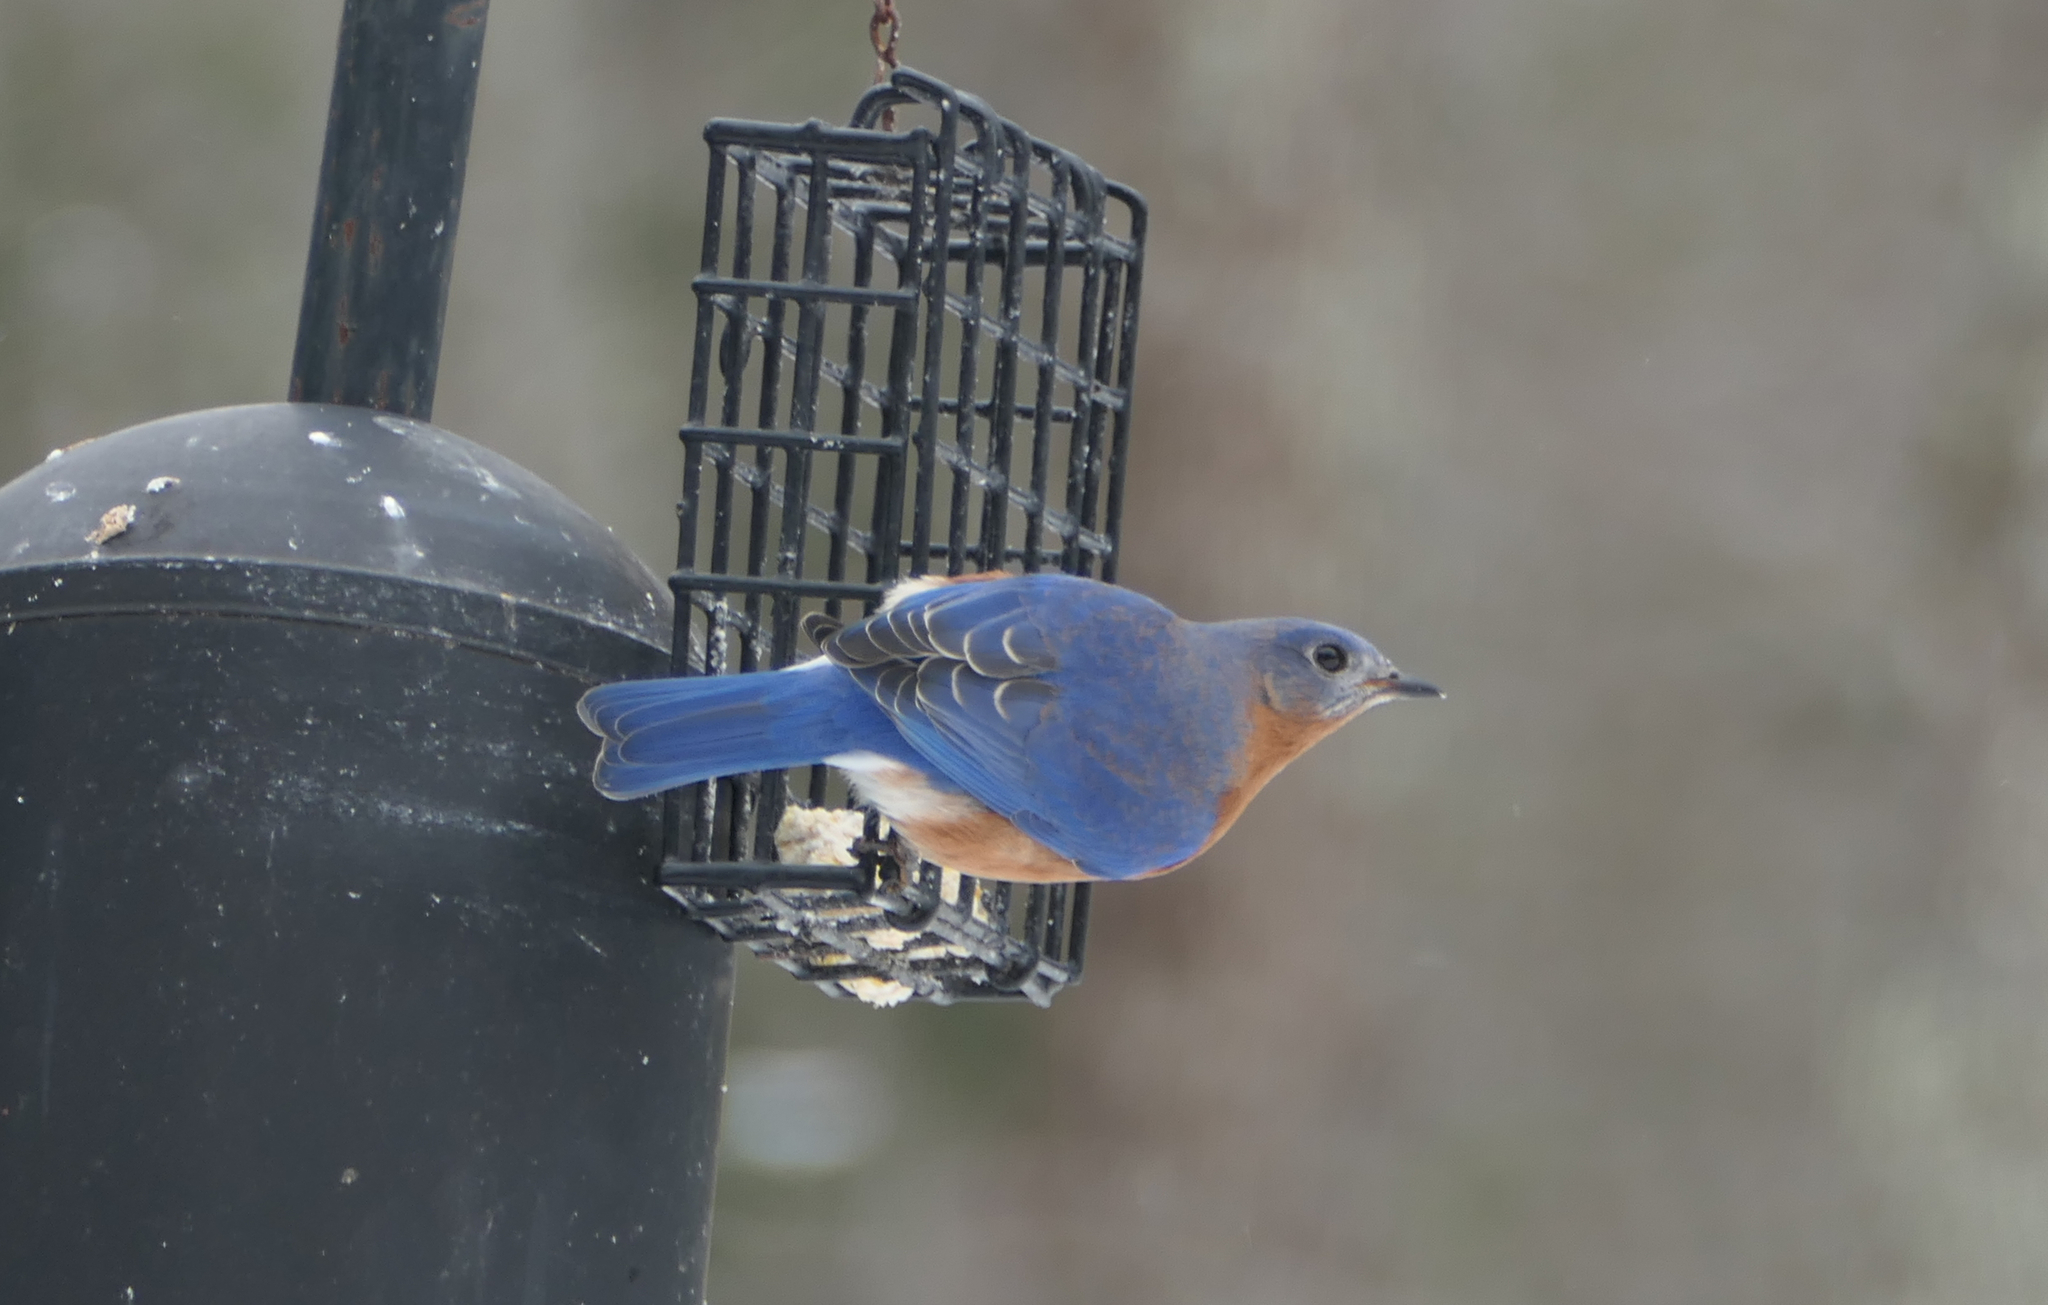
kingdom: Animalia
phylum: Chordata
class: Aves
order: Passeriformes
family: Turdidae
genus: Sialia
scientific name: Sialia sialis
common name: Eastern bluebird
